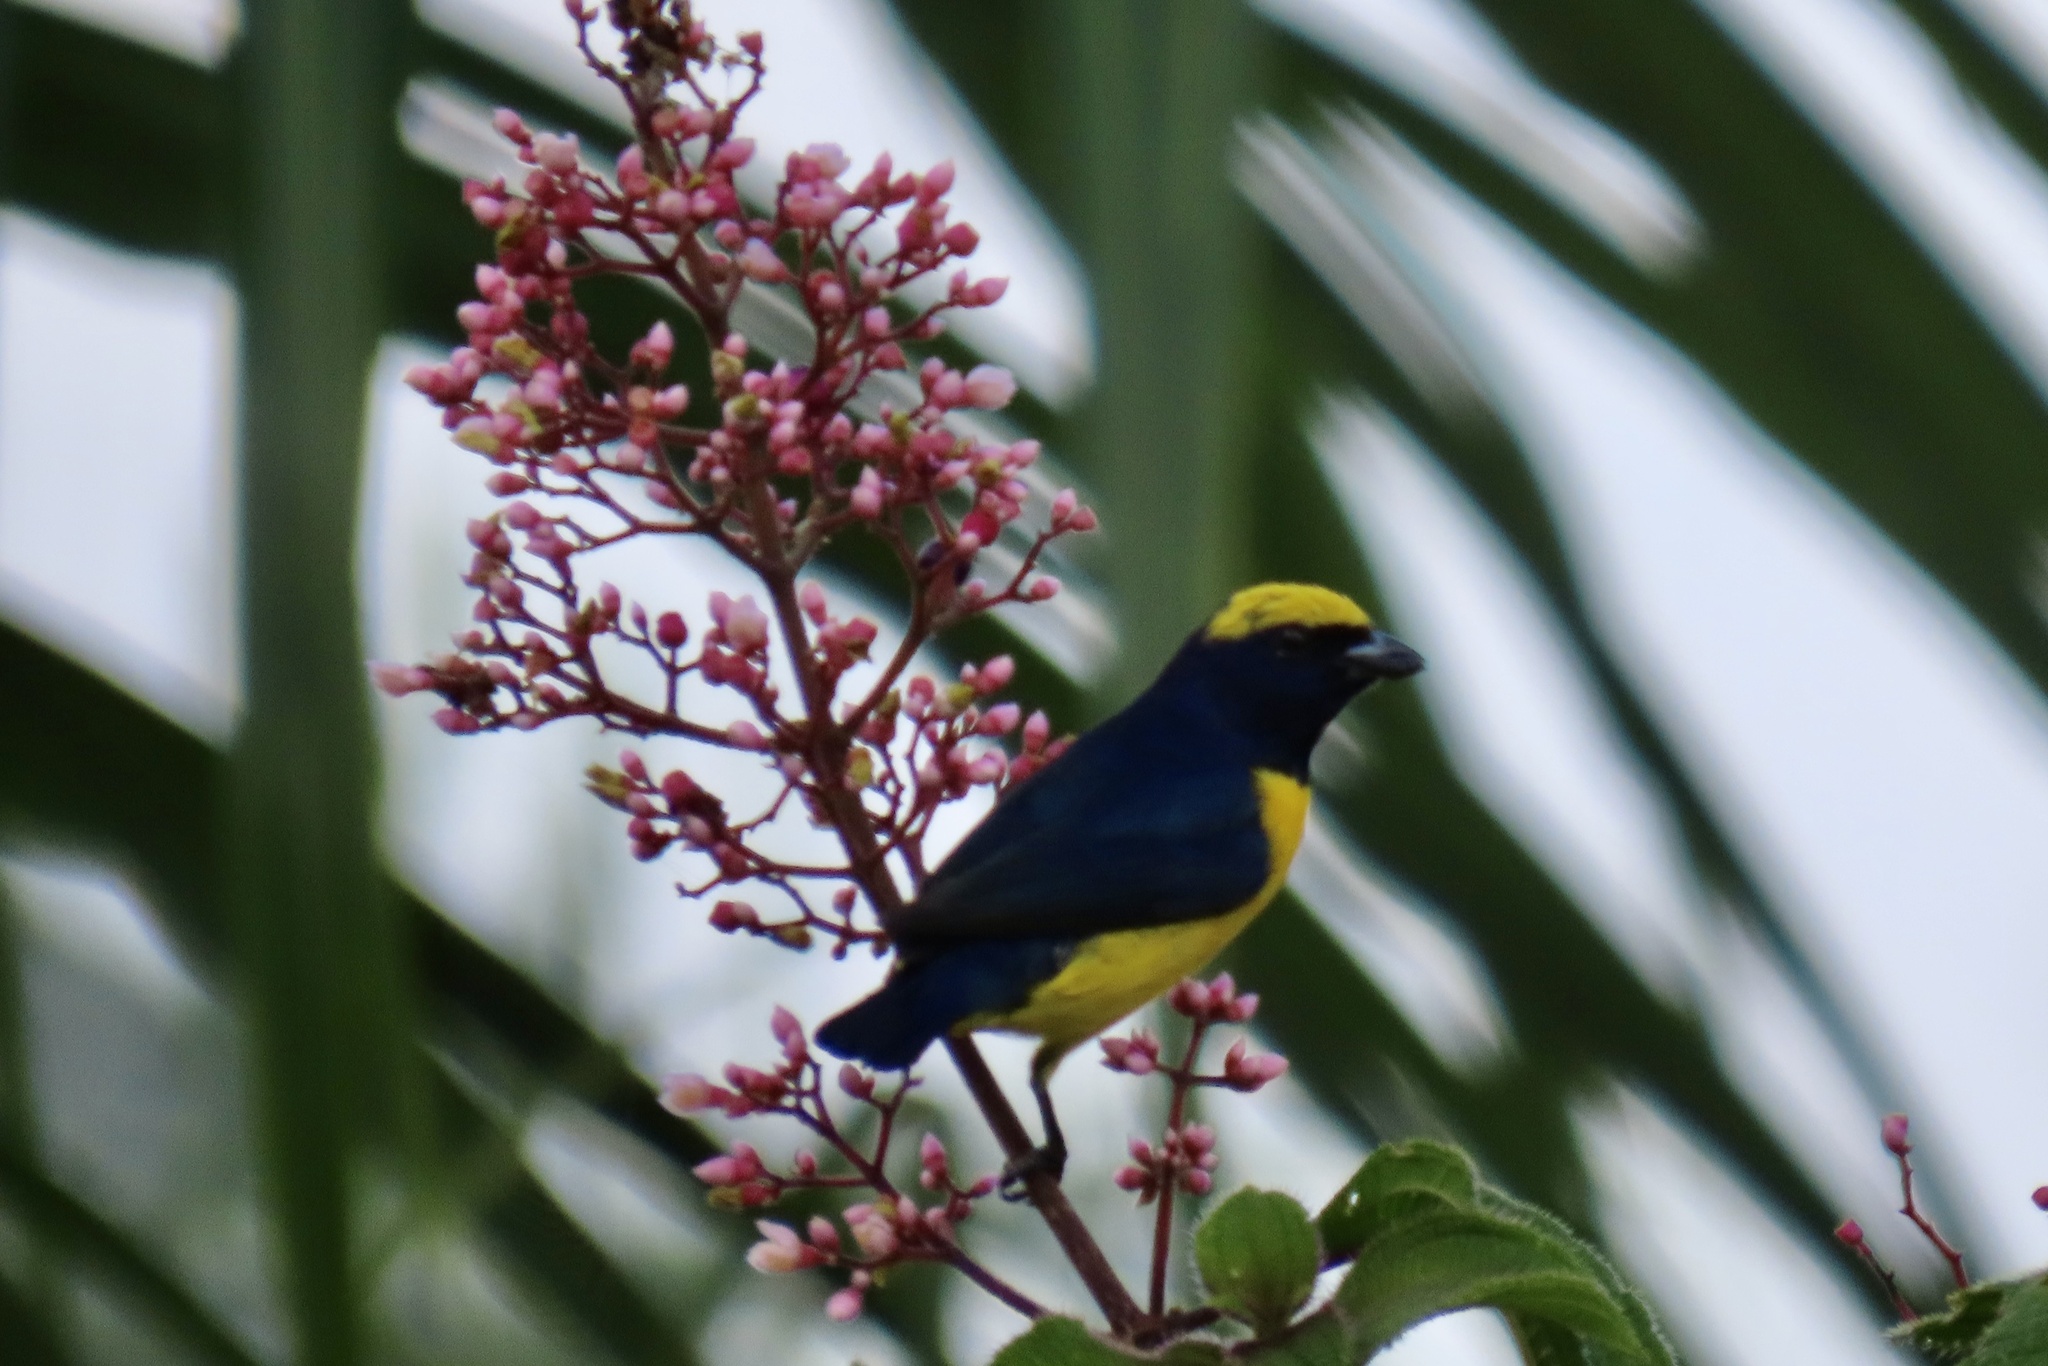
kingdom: Animalia
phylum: Chordata
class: Aves
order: Passeriformes
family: Fringillidae
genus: Euphonia
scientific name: Euphonia luteicapilla
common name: Yellow-crowned euphonia
